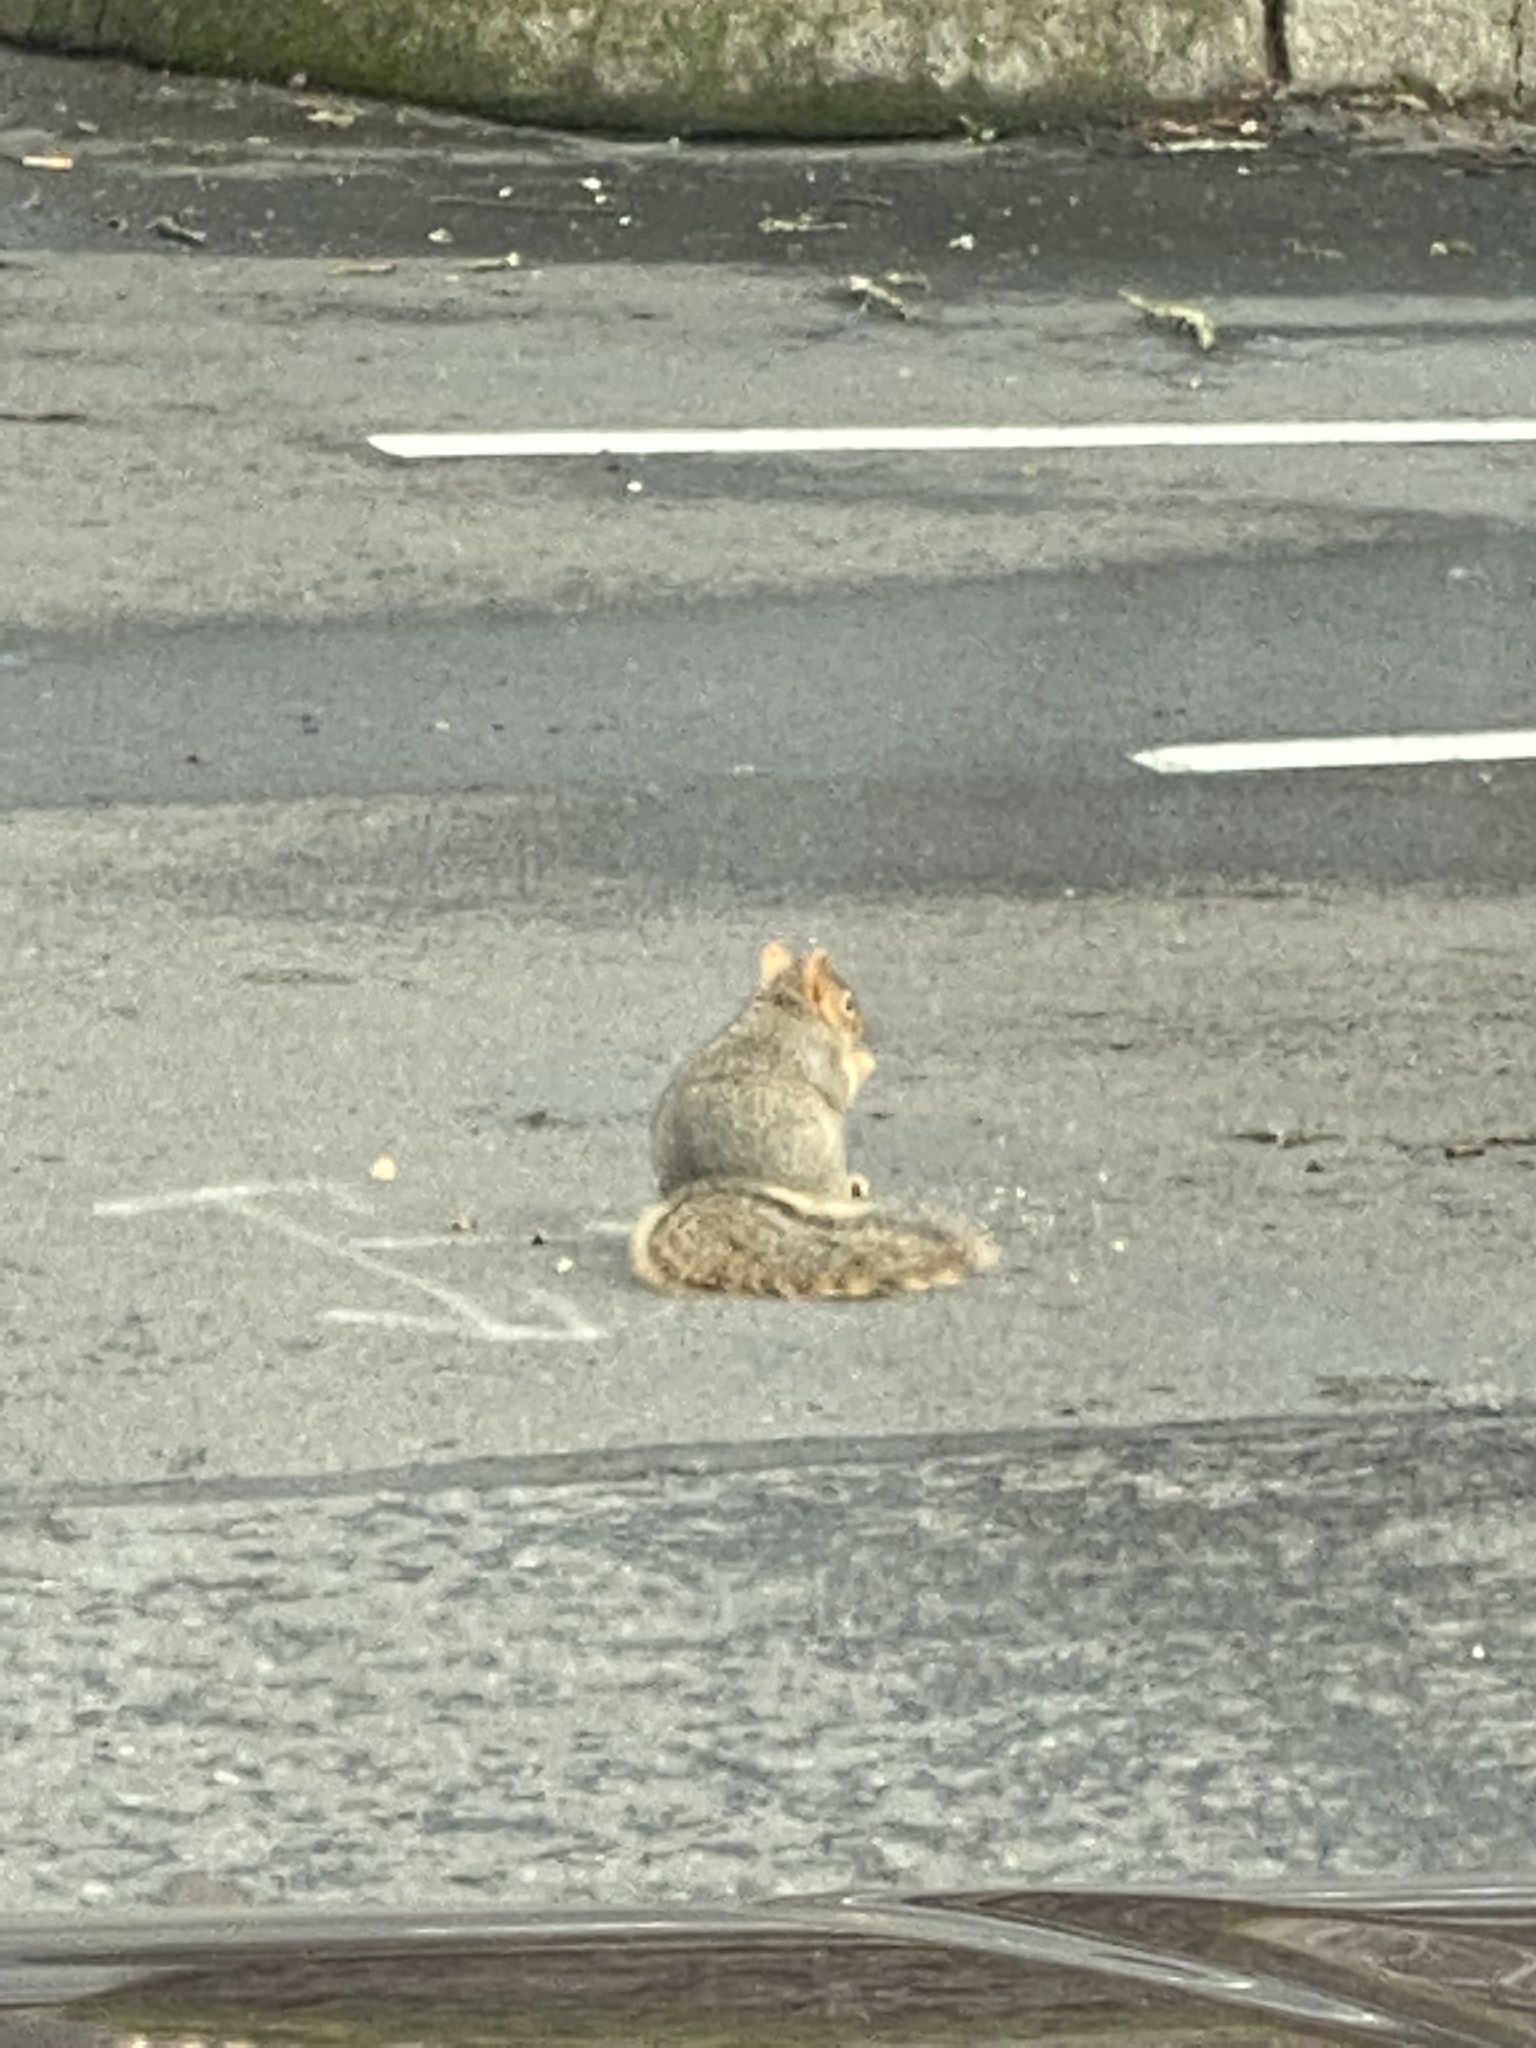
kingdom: Animalia
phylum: Chordata
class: Mammalia
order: Rodentia
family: Sciuridae
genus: Sciurus
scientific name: Sciurus carolinensis
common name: Eastern gray squirrel
